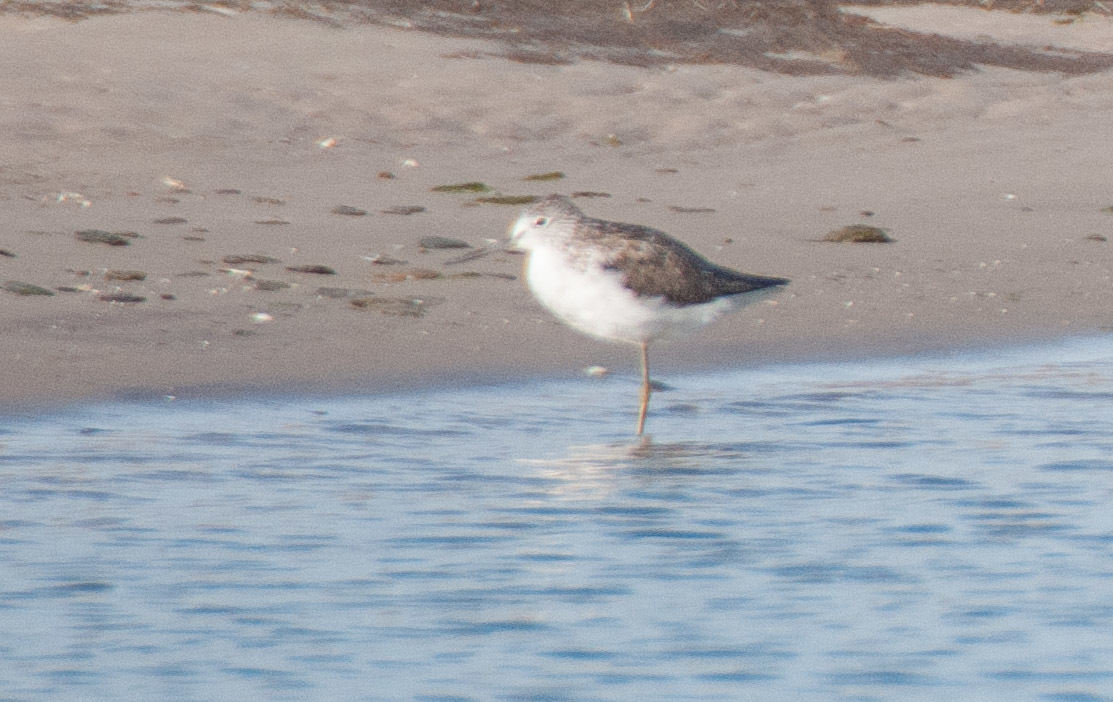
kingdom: Animalia
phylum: Chordata
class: Aves
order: Charadriiformes
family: Scolopacidae
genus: Tringa
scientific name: Tringa nebularia
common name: Common greenshank
